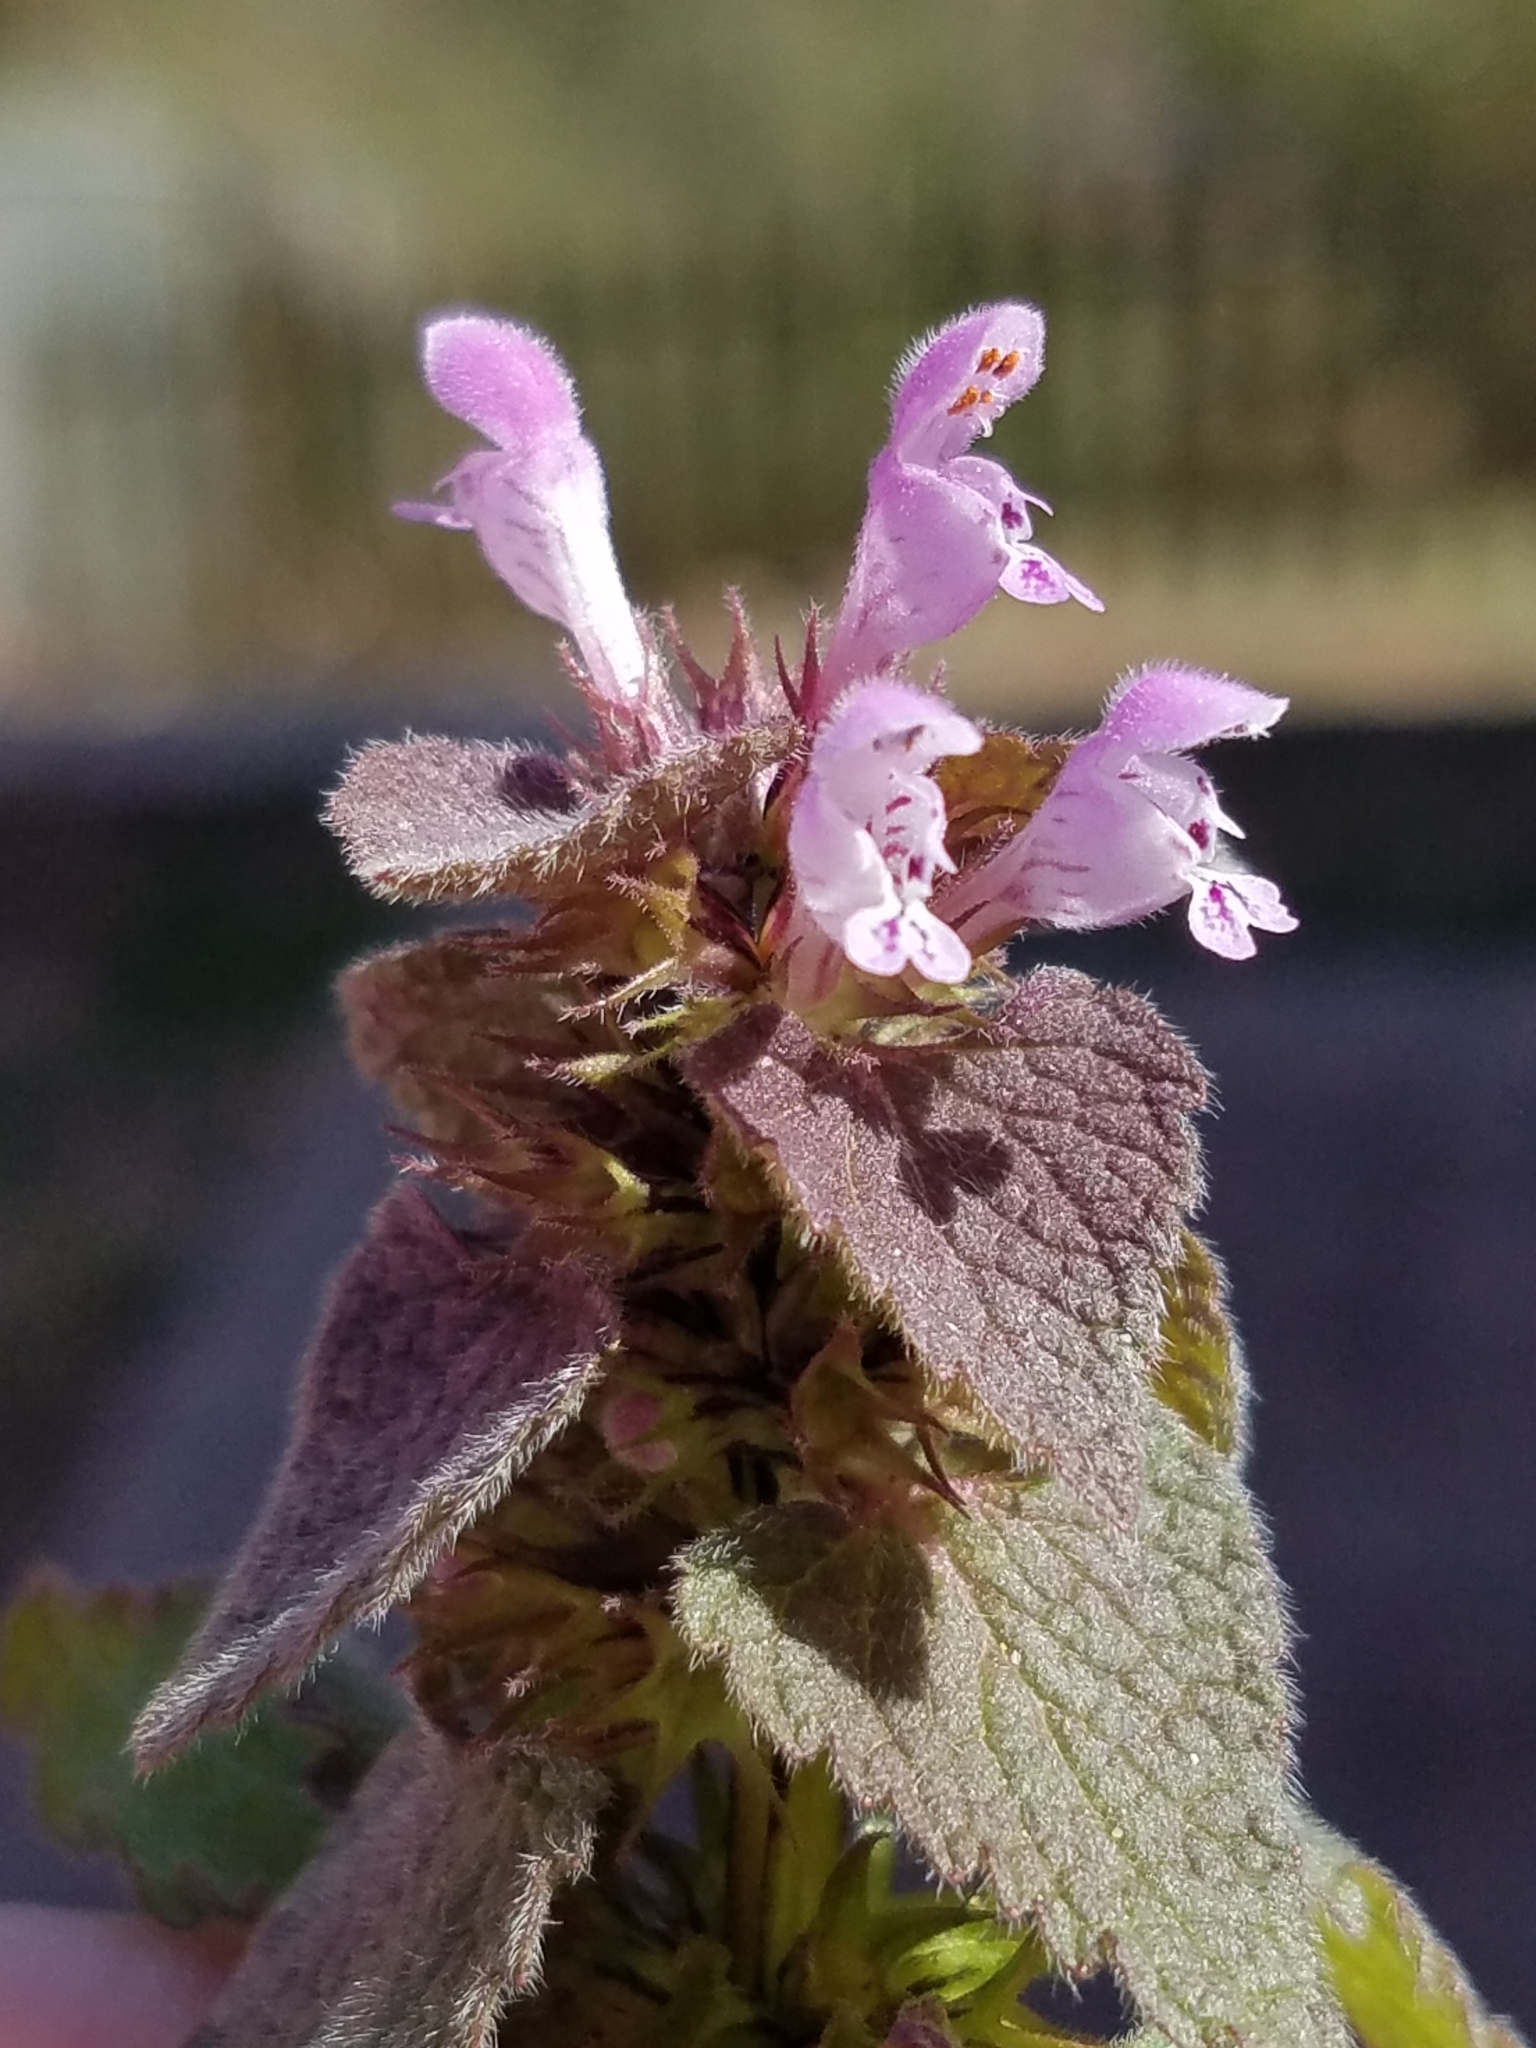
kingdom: Plantae
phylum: Tracheophyta
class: Magnoliopsida
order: Lamiales
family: Lamiaceae
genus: Lamium
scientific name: Lamium purpureum
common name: Red dead-nettle
